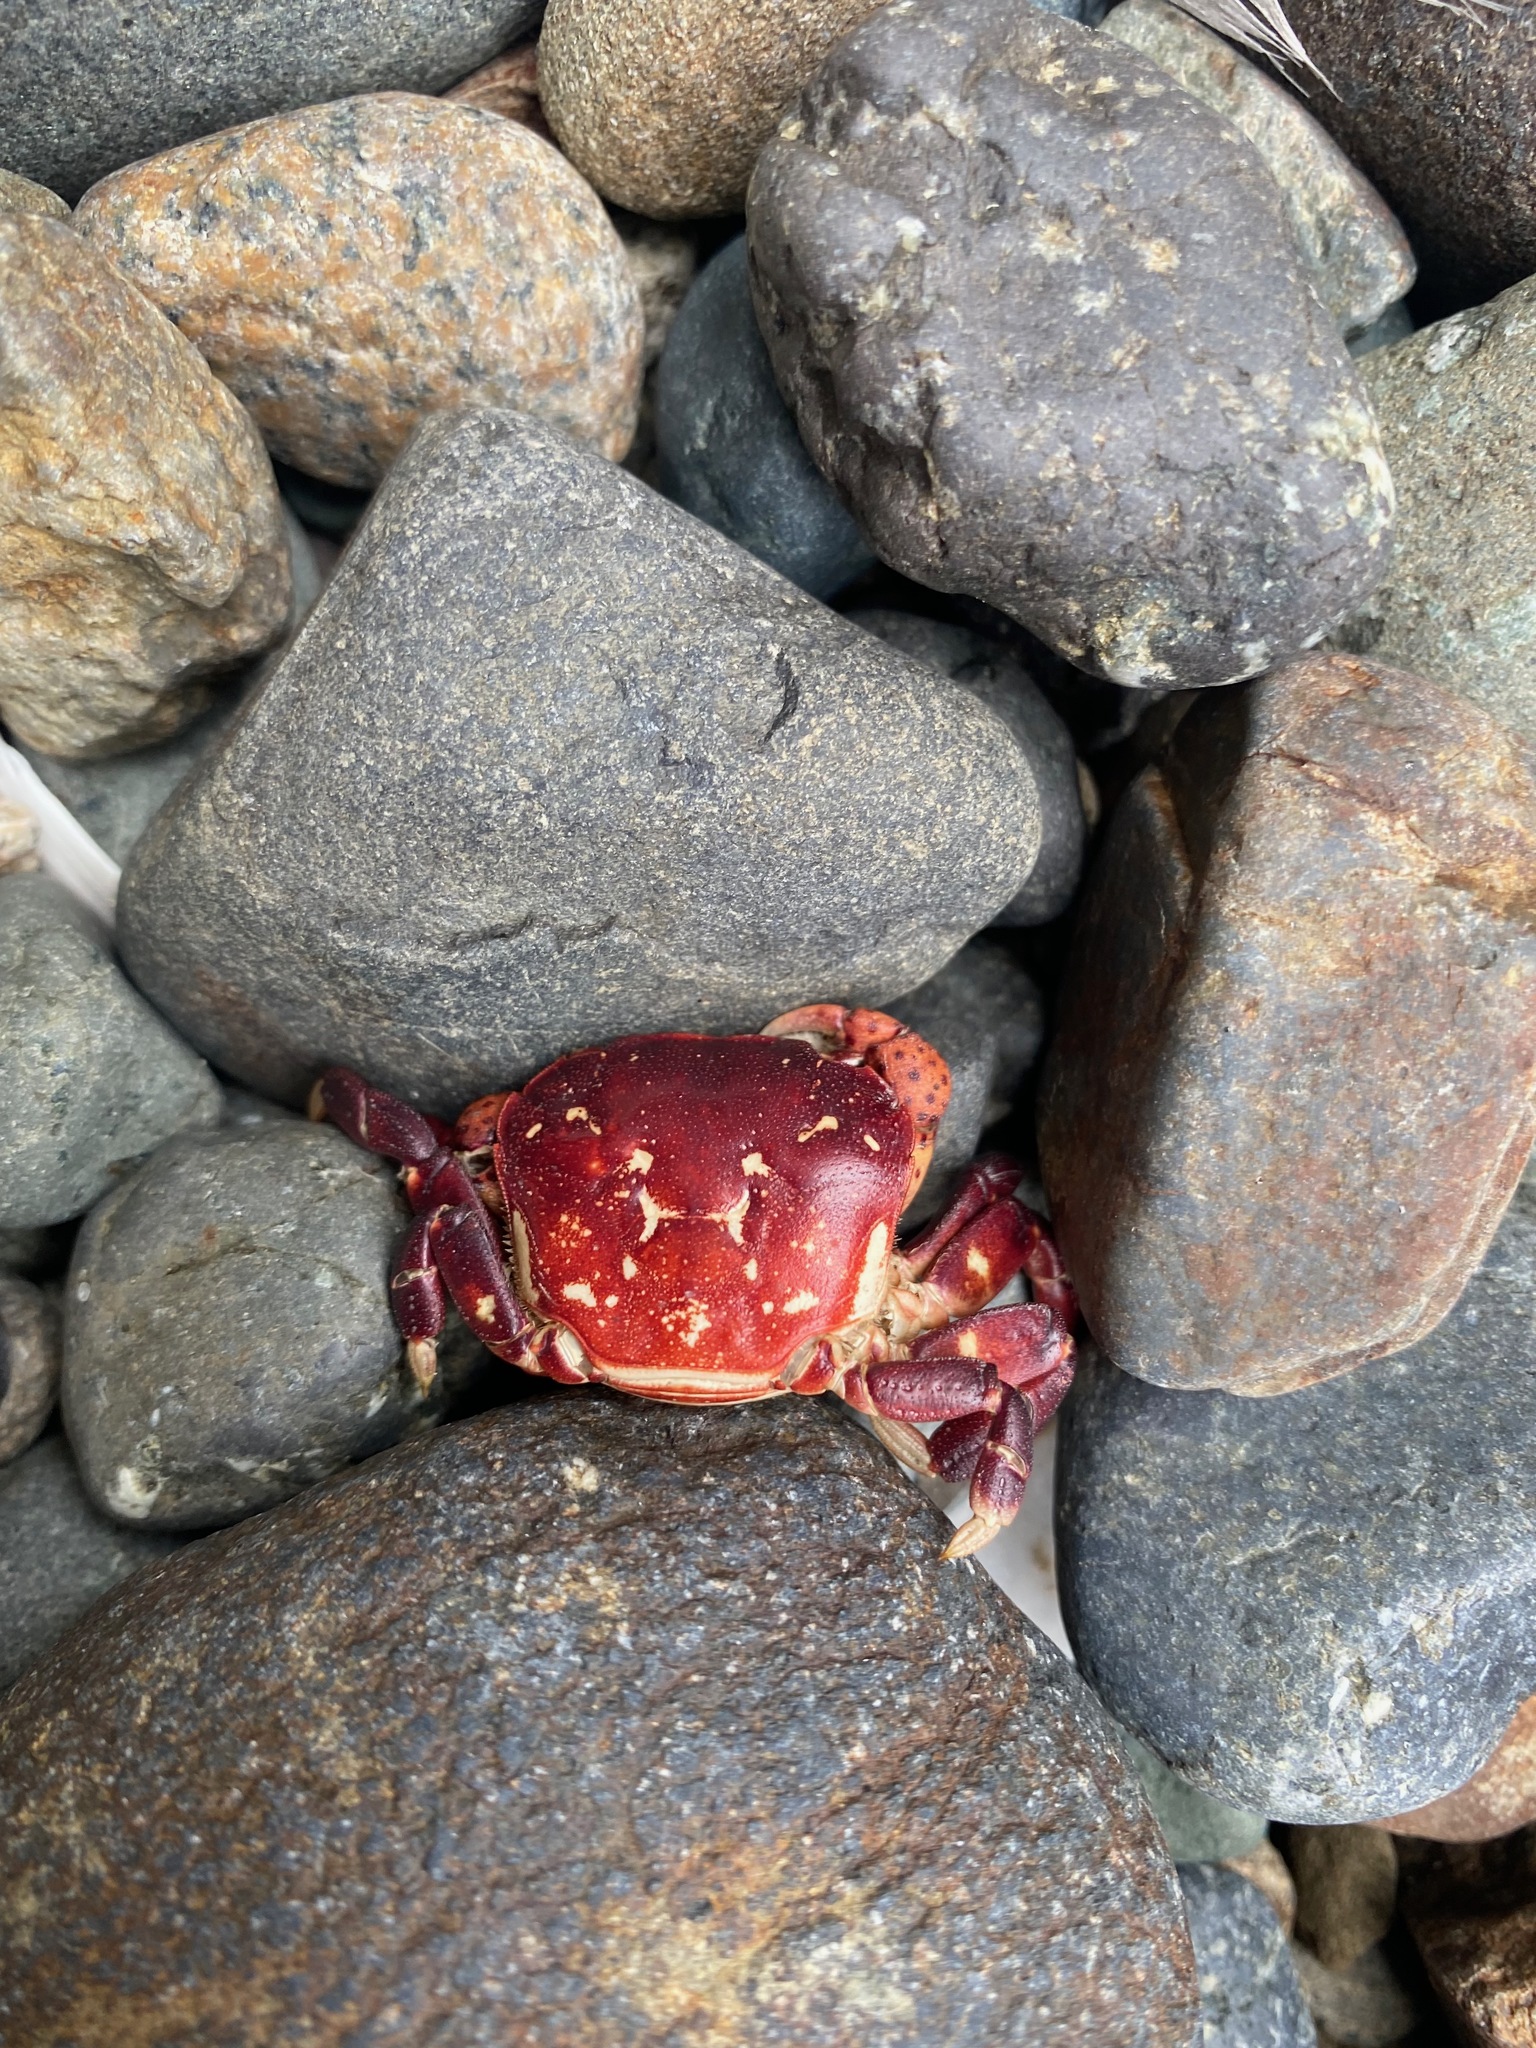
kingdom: Animalia
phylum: Arthropoda
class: Malacostraca
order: Decapoda
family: Varunidae
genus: Hemigrapsus
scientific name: Hemigrapsus nudus
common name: Purple shore crab
